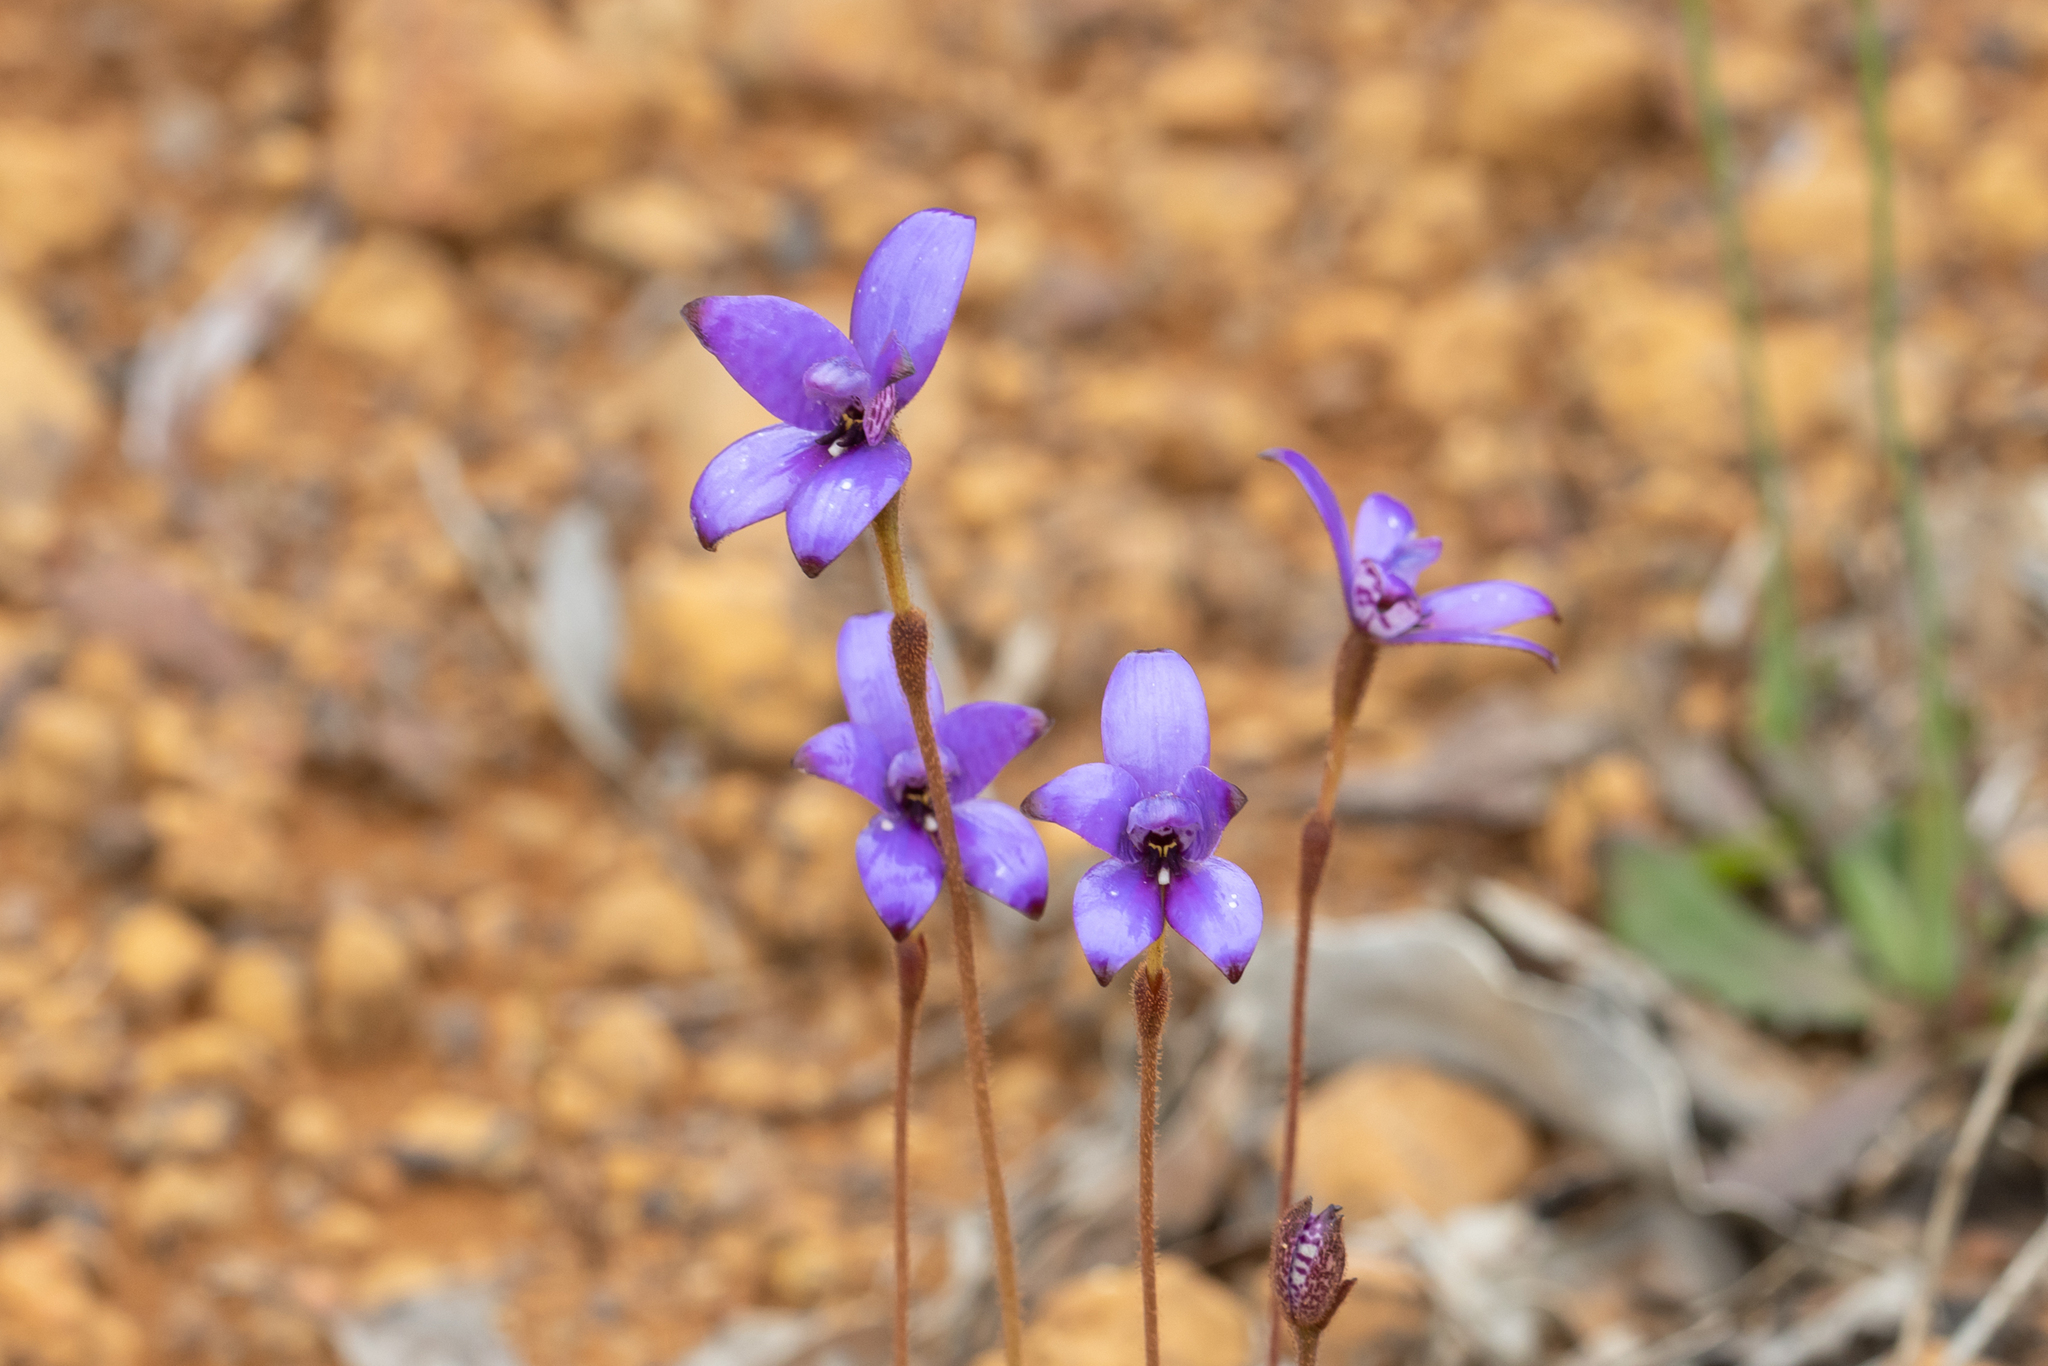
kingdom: Plantae
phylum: Tracheophyta
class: Liliopsida
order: Asparagales
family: Orchidaceae
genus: Caladenia
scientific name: Caladenia brunonis
